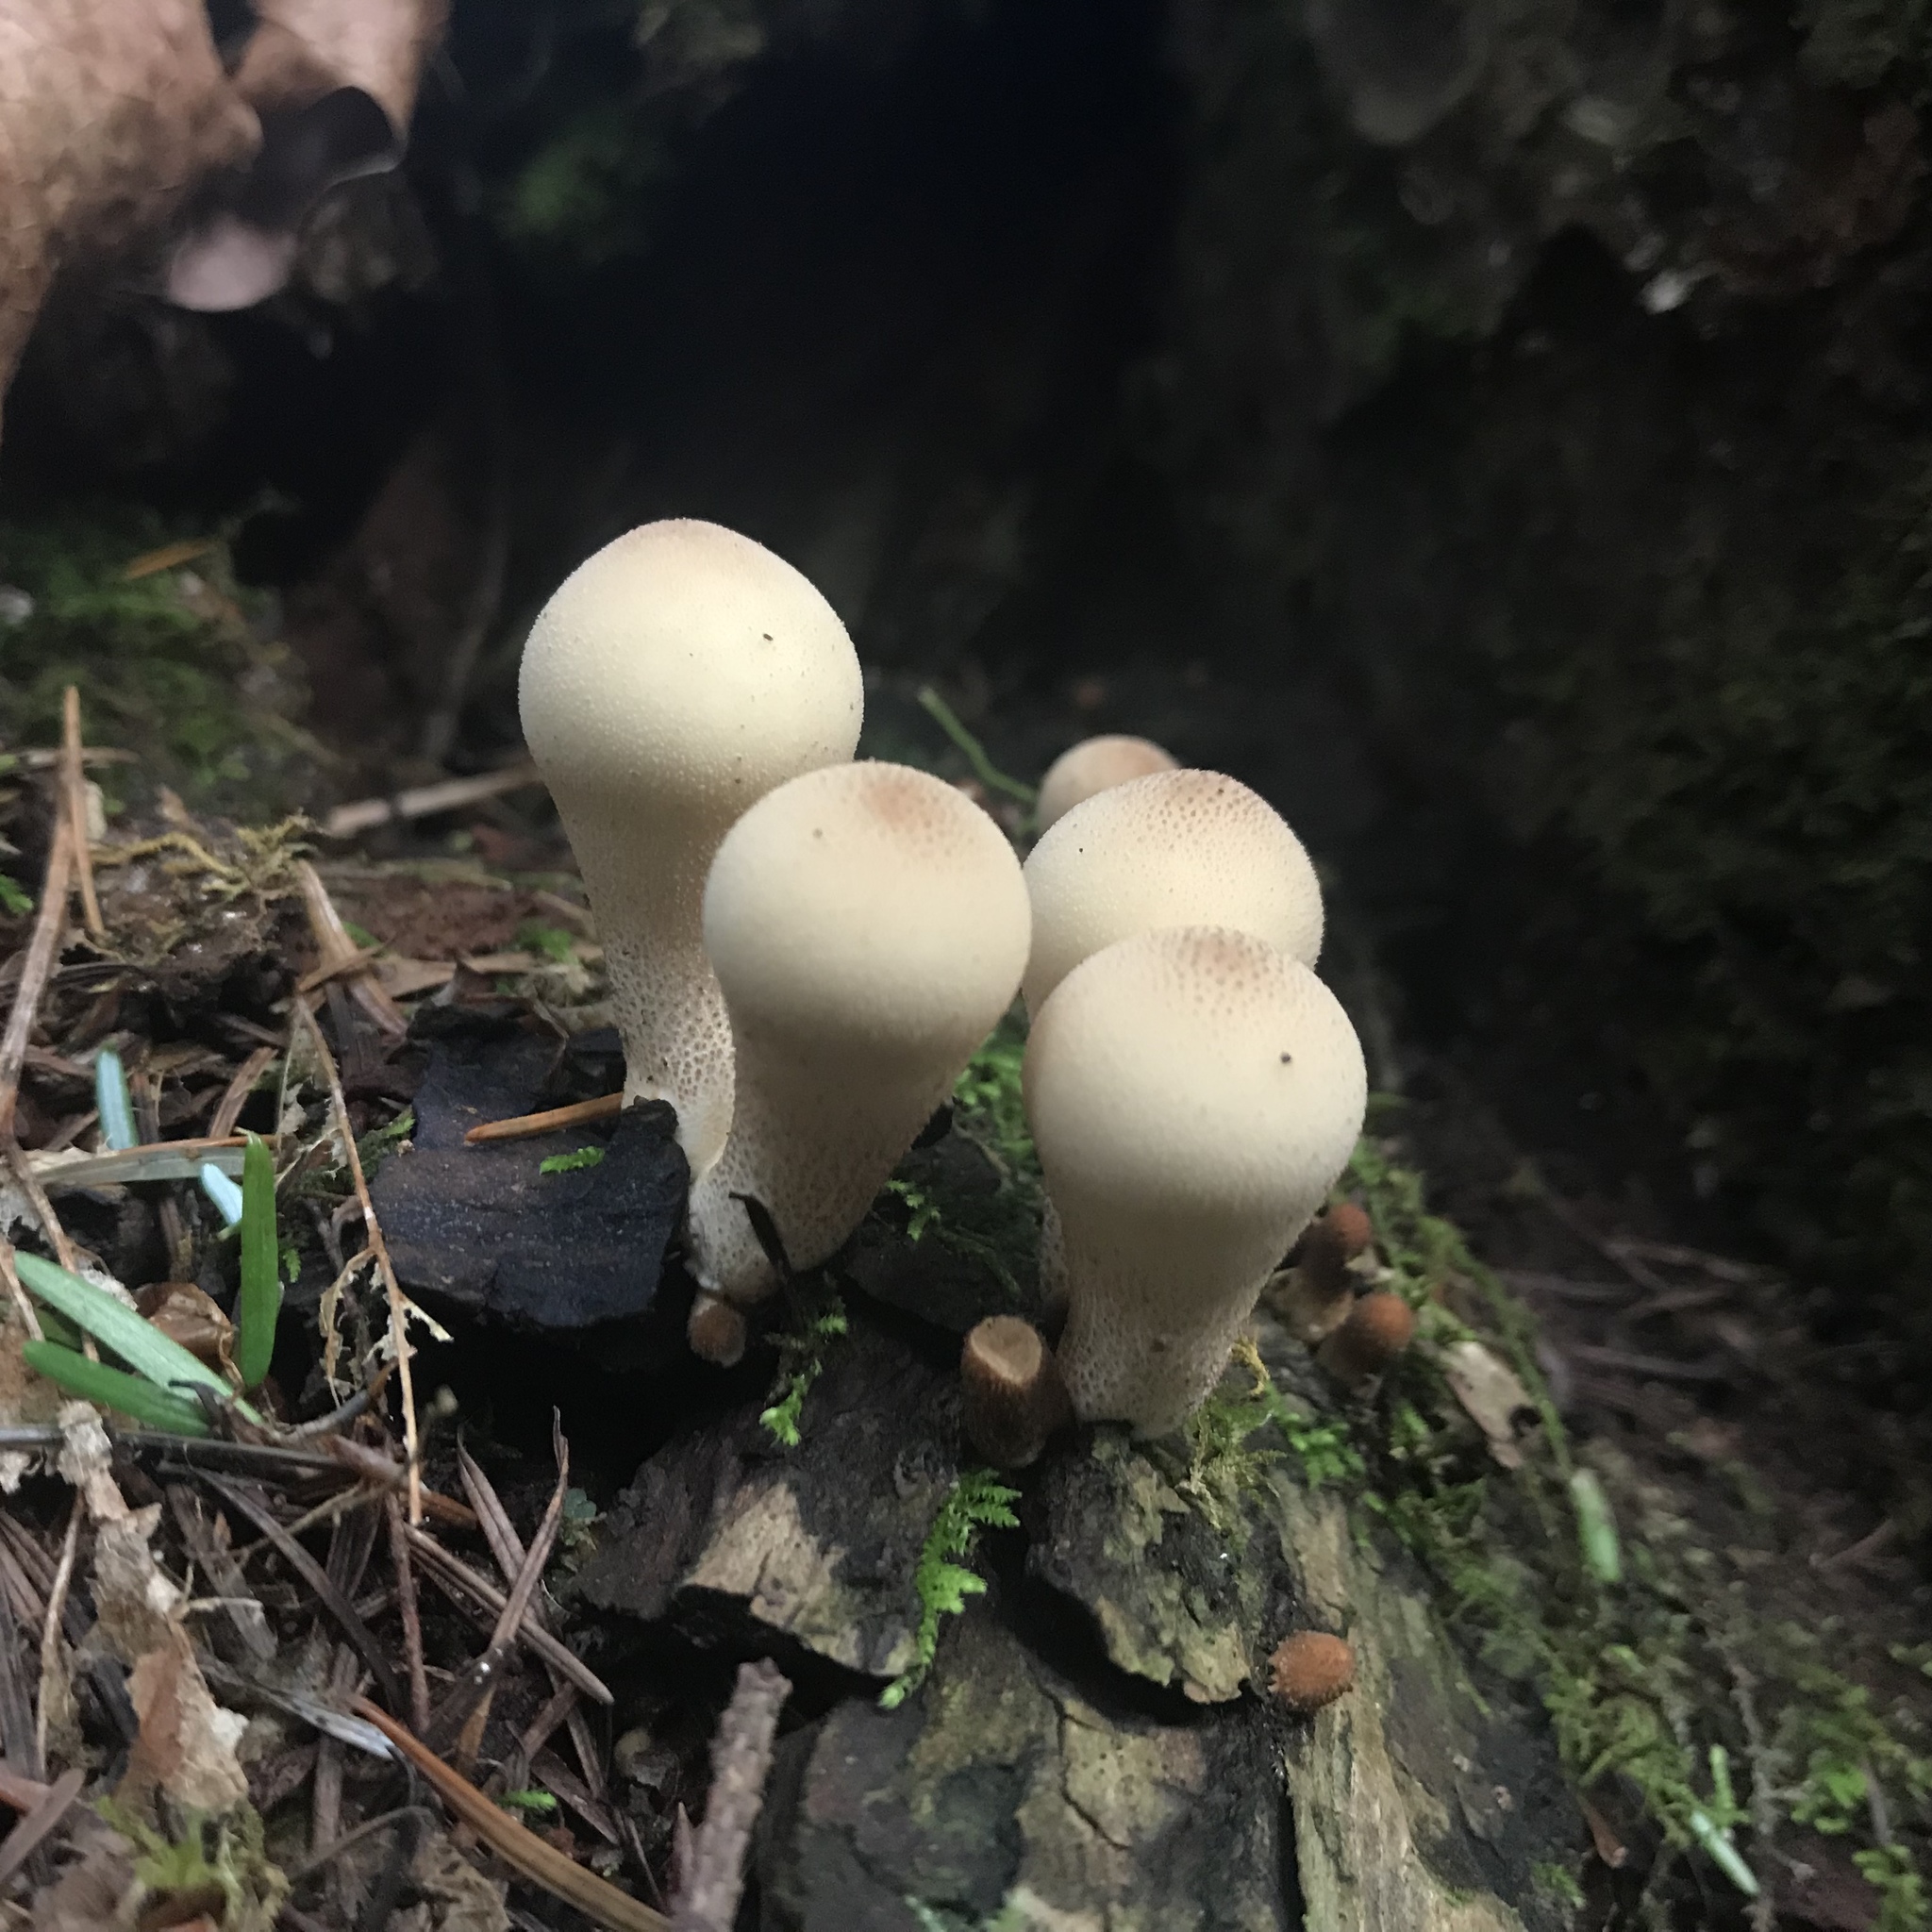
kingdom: Fungi
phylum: Basidiomycota
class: Agaricomycetes
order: Agaricales
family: Lycoperdaceae
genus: Apioperdon
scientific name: Apioperdon pyriforme
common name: Pear-shaped puffball
